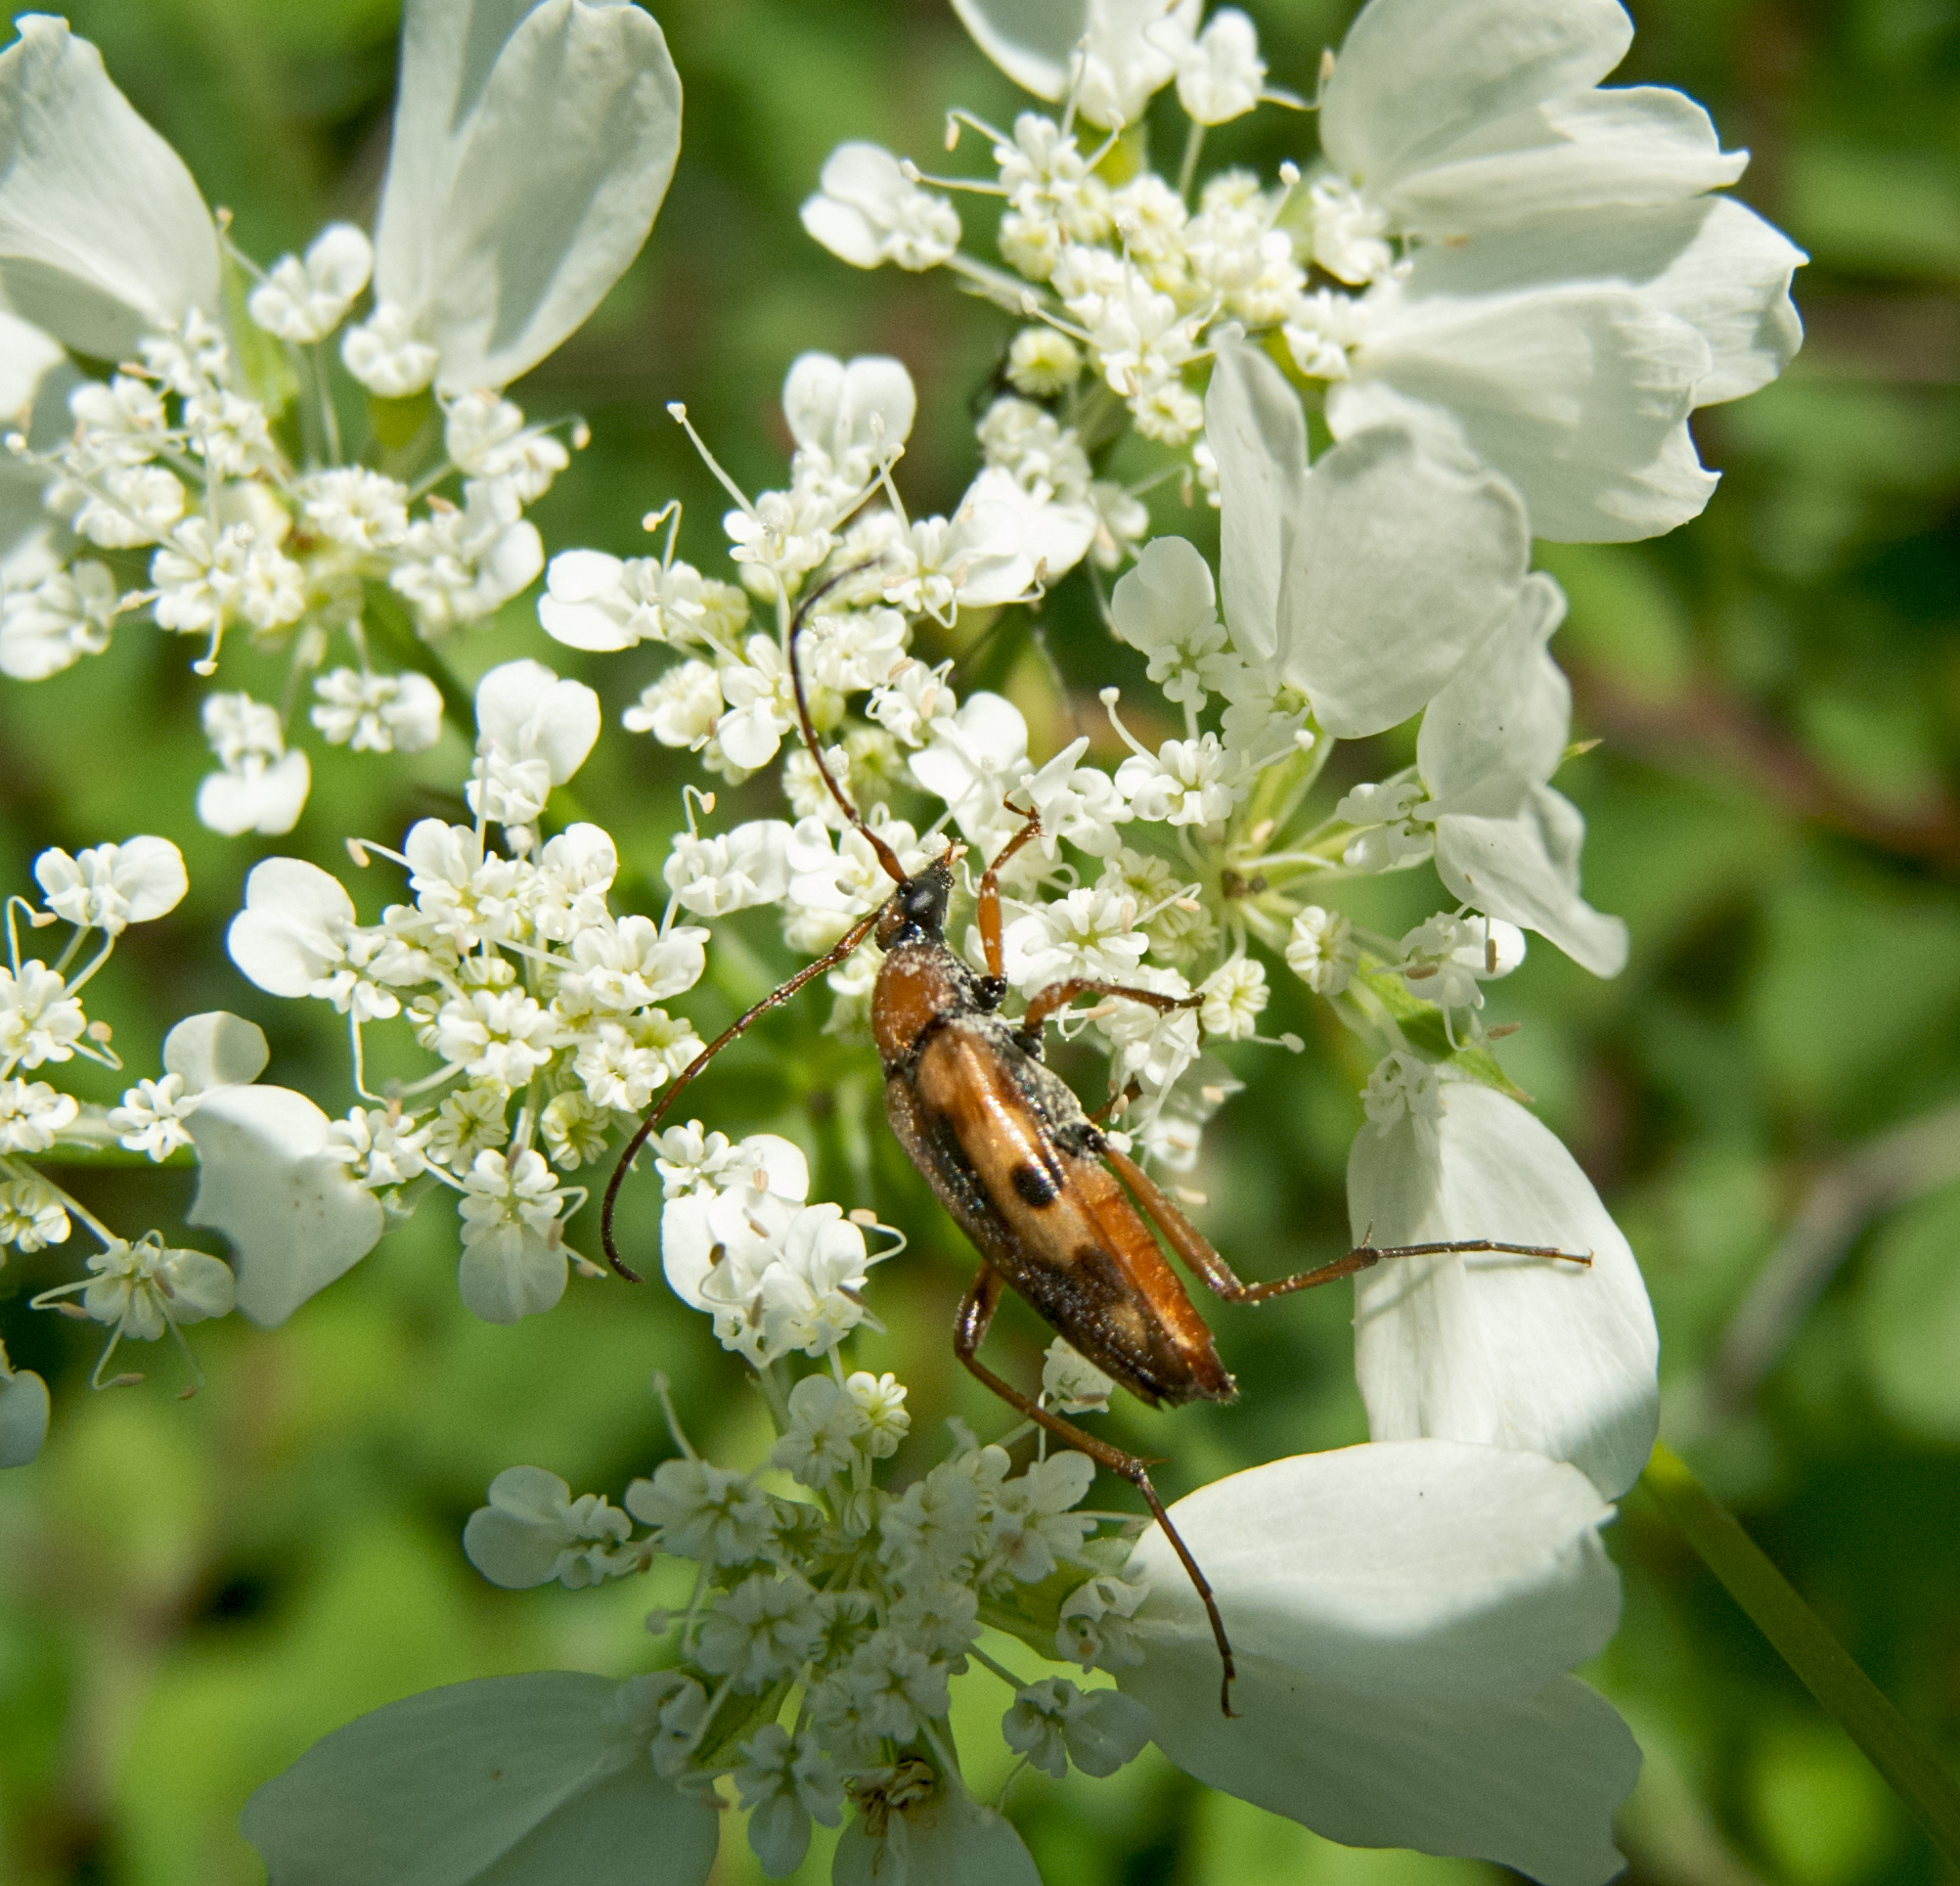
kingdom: Animalia
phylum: Arthropoda
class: Insecta
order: Coleoptera
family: Cerambycidae
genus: Stenurella
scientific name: Stenurella septempunctata
